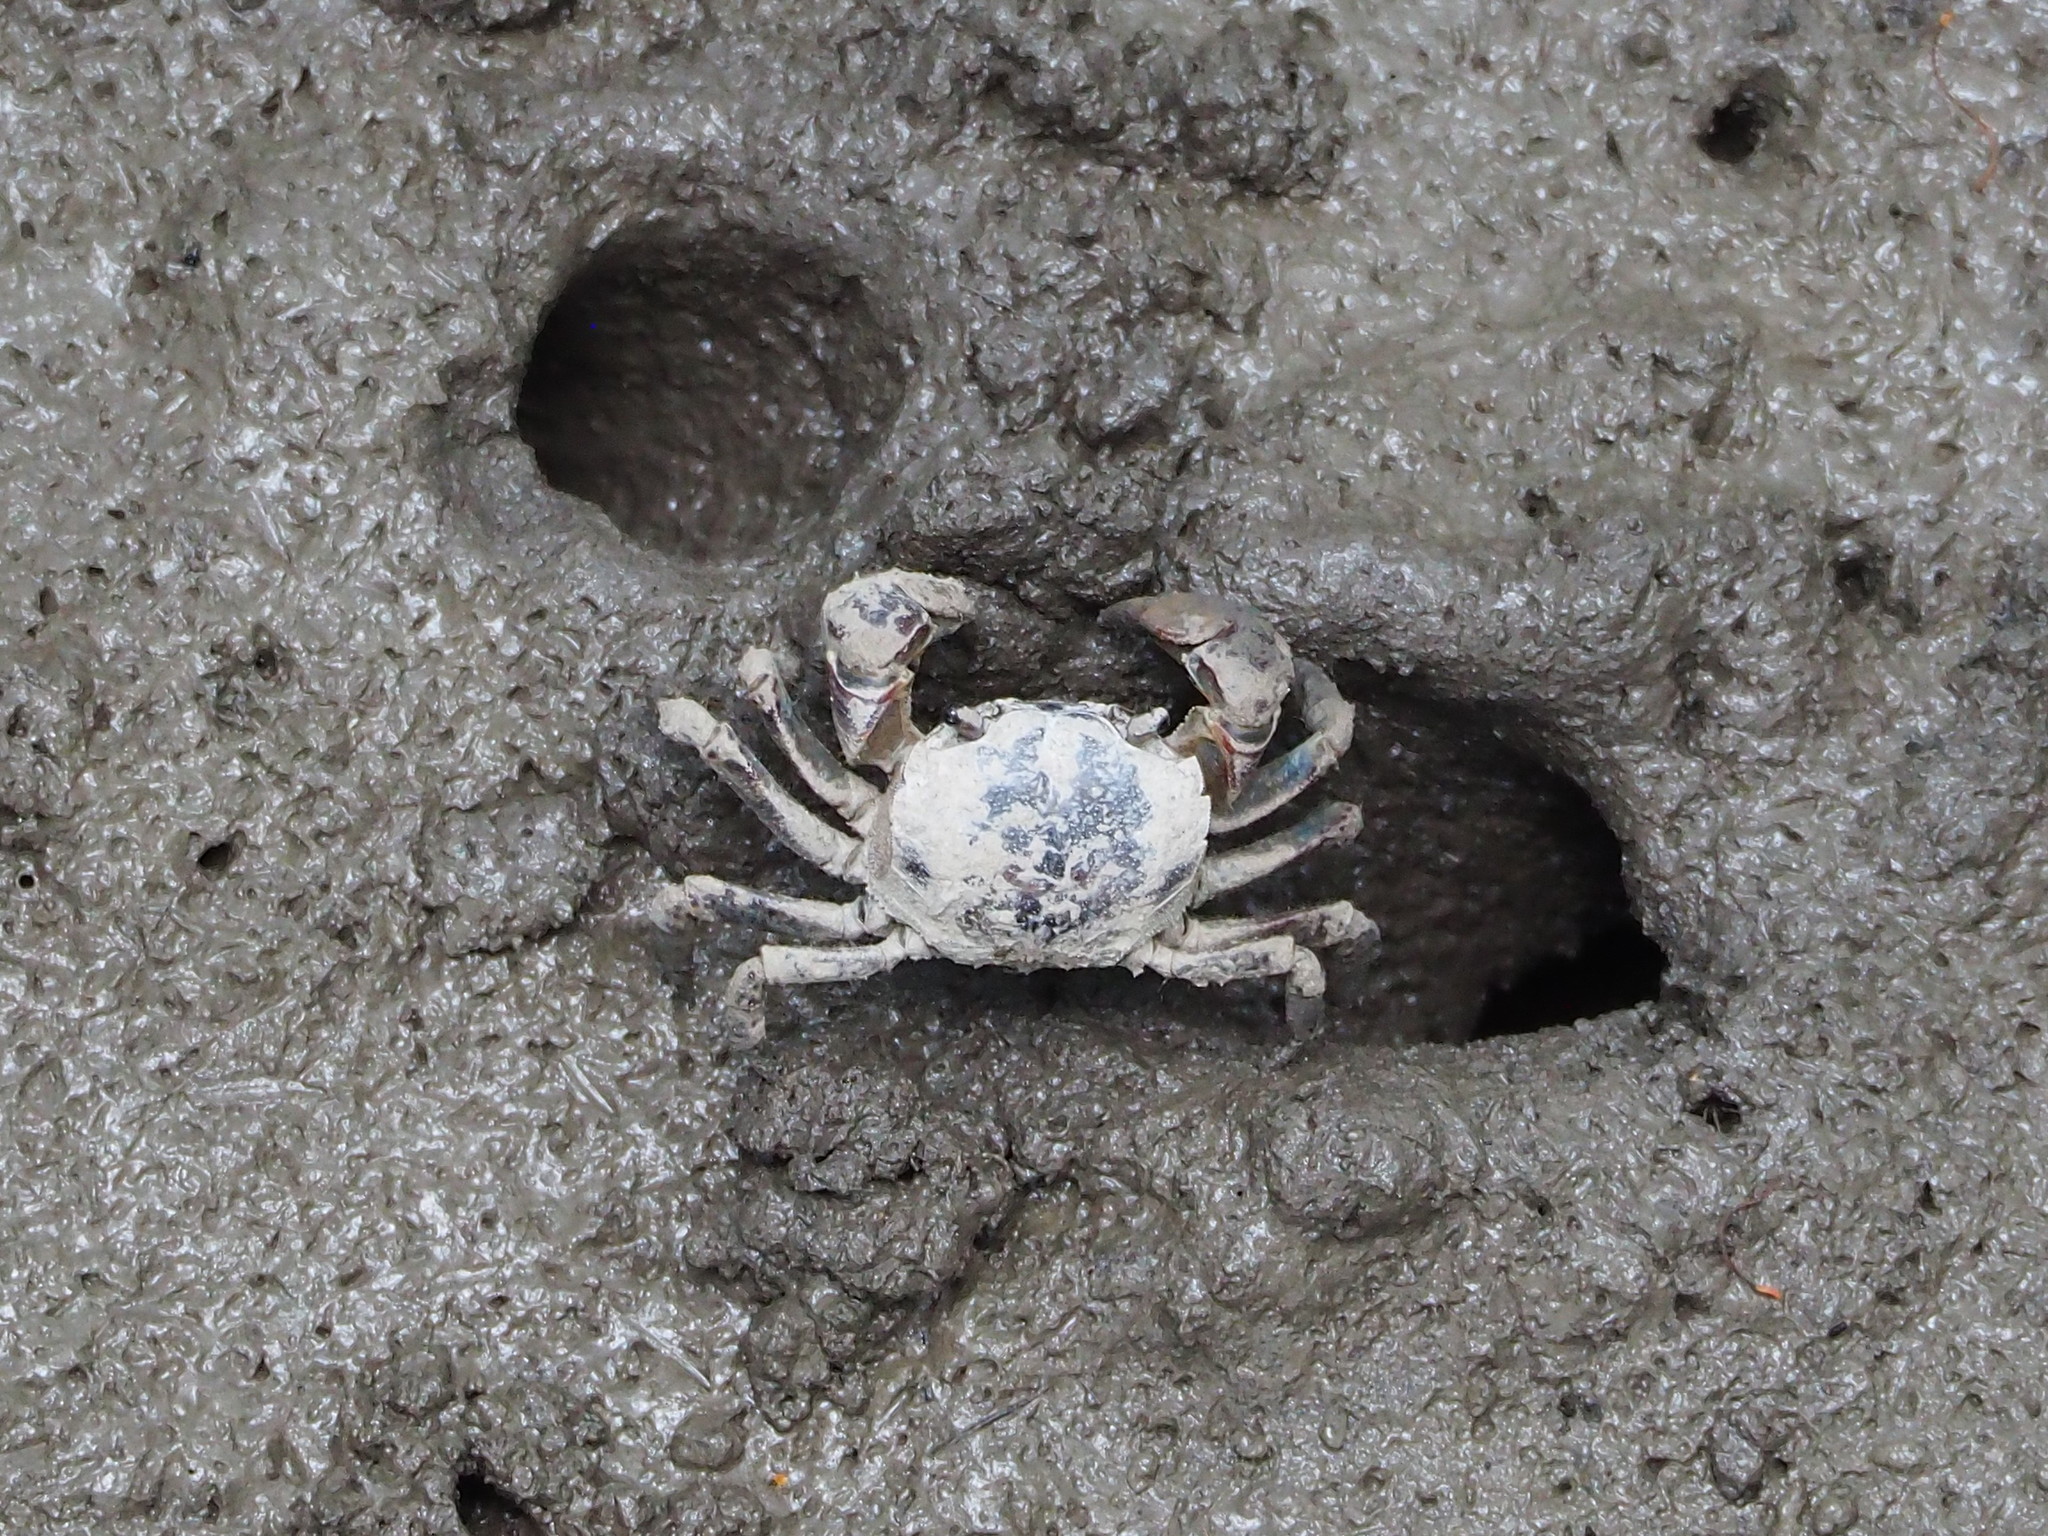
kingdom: Animalia
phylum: Arthropoda
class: Malacostraca
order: Decapoda
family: Varunidae
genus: Pseudohelice
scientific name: Pseudohelice subquadrata
